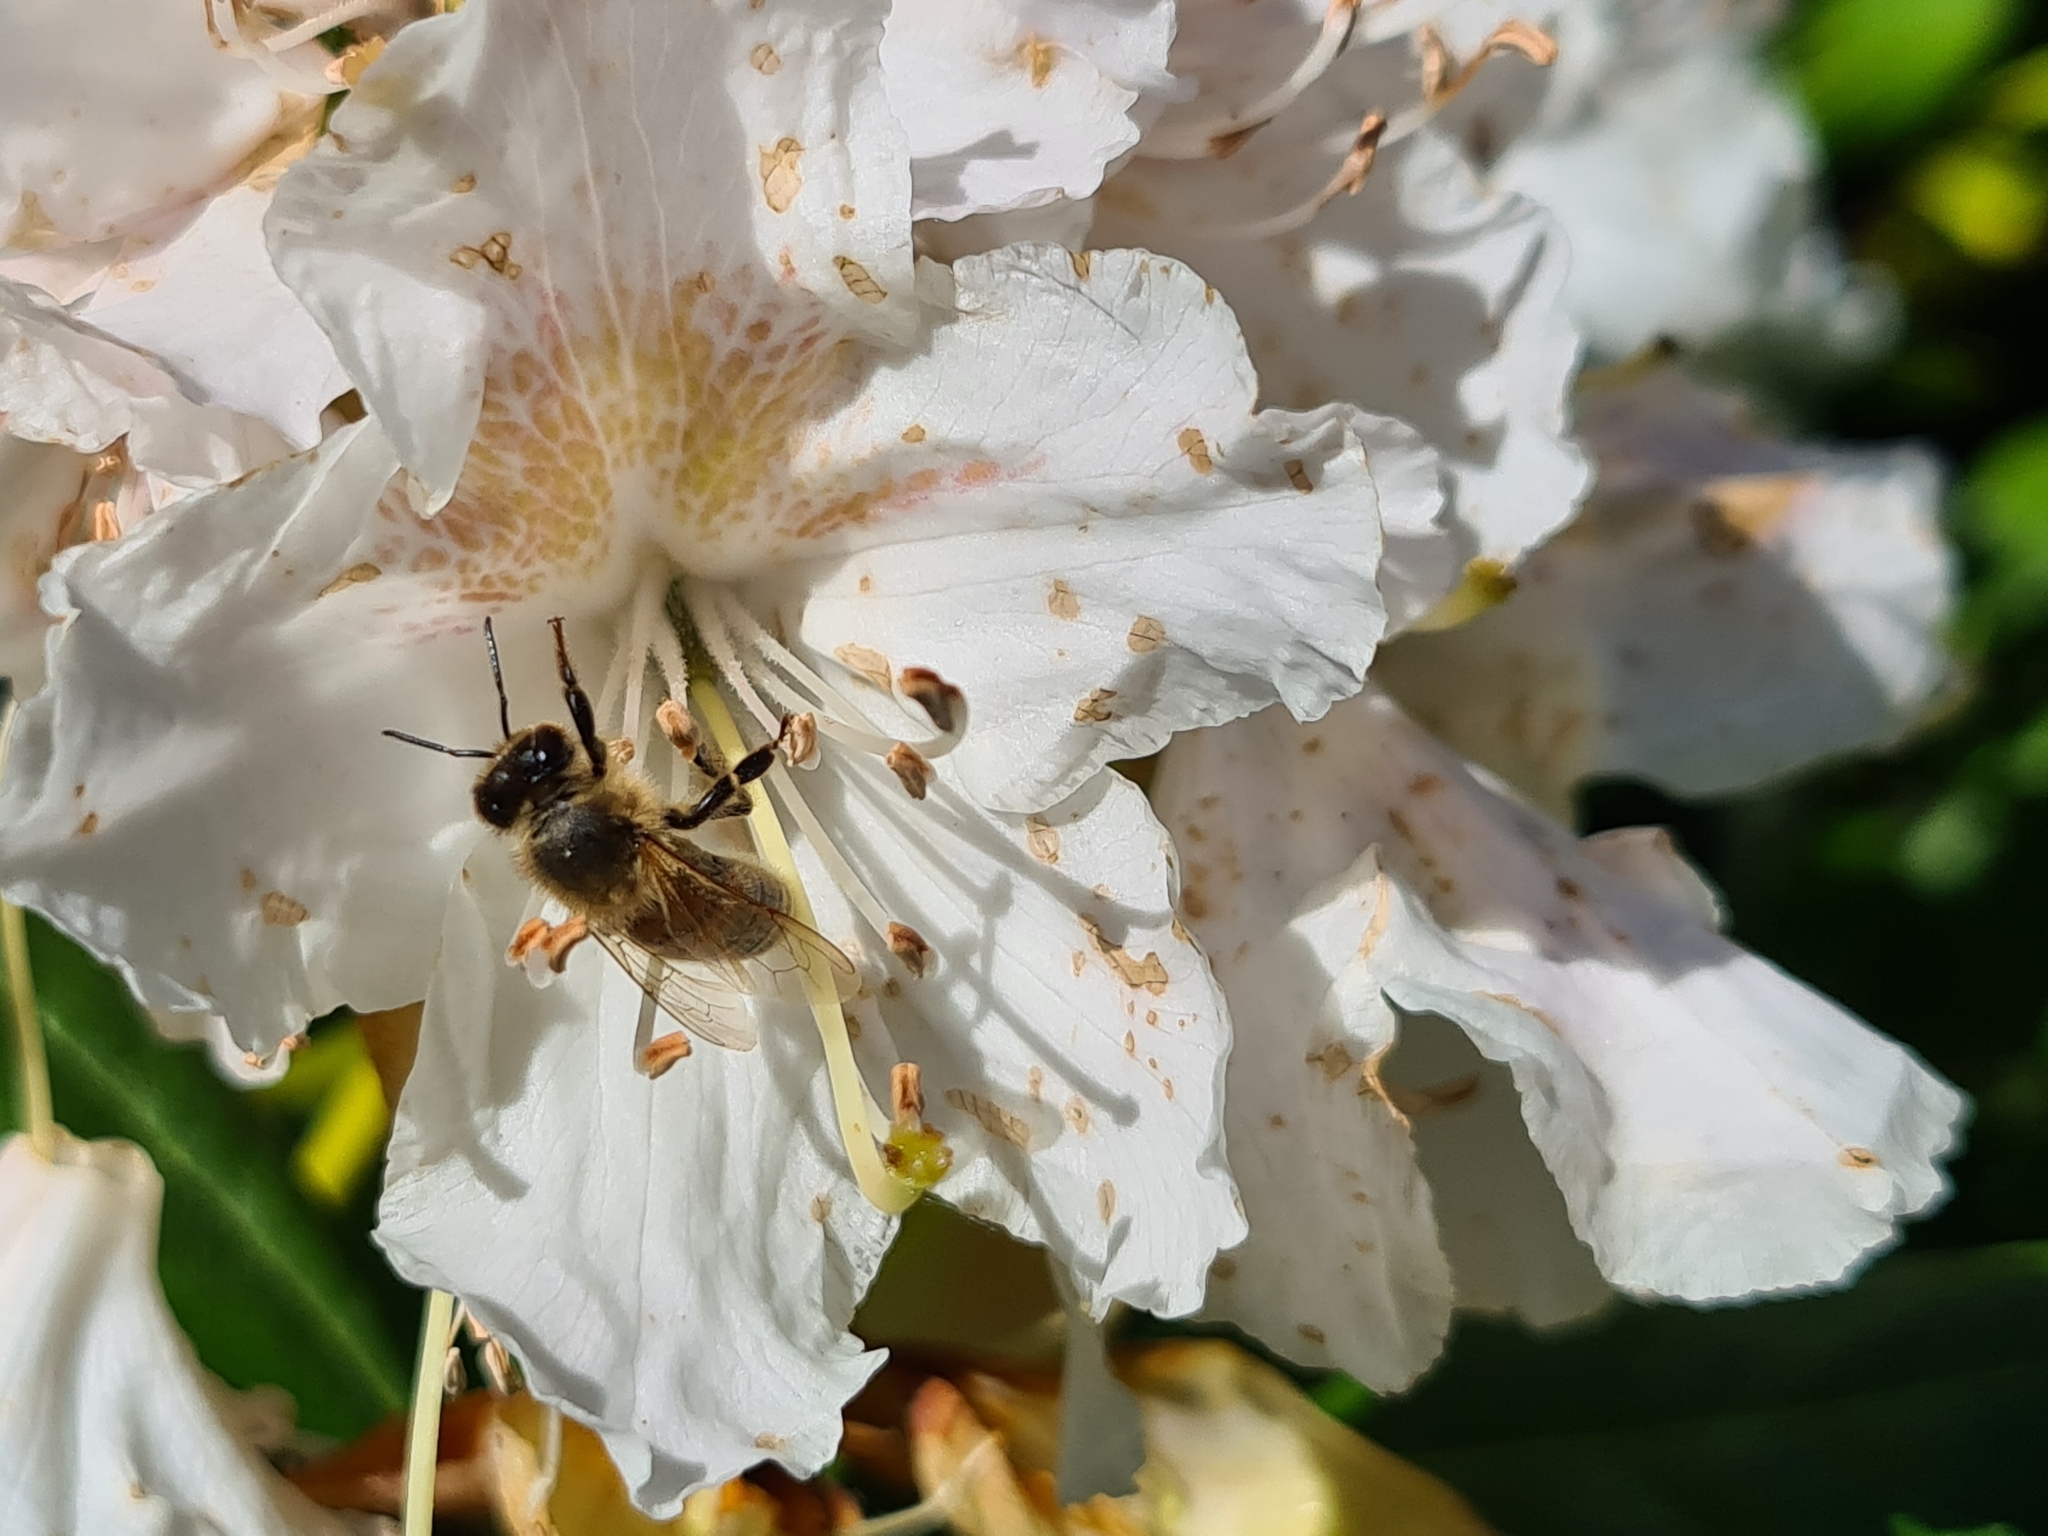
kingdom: Animalia
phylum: Arthropoda
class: Insecta
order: Hymenoptera
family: Apidae
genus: Apis
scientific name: Apis mellifera
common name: Honey bee
